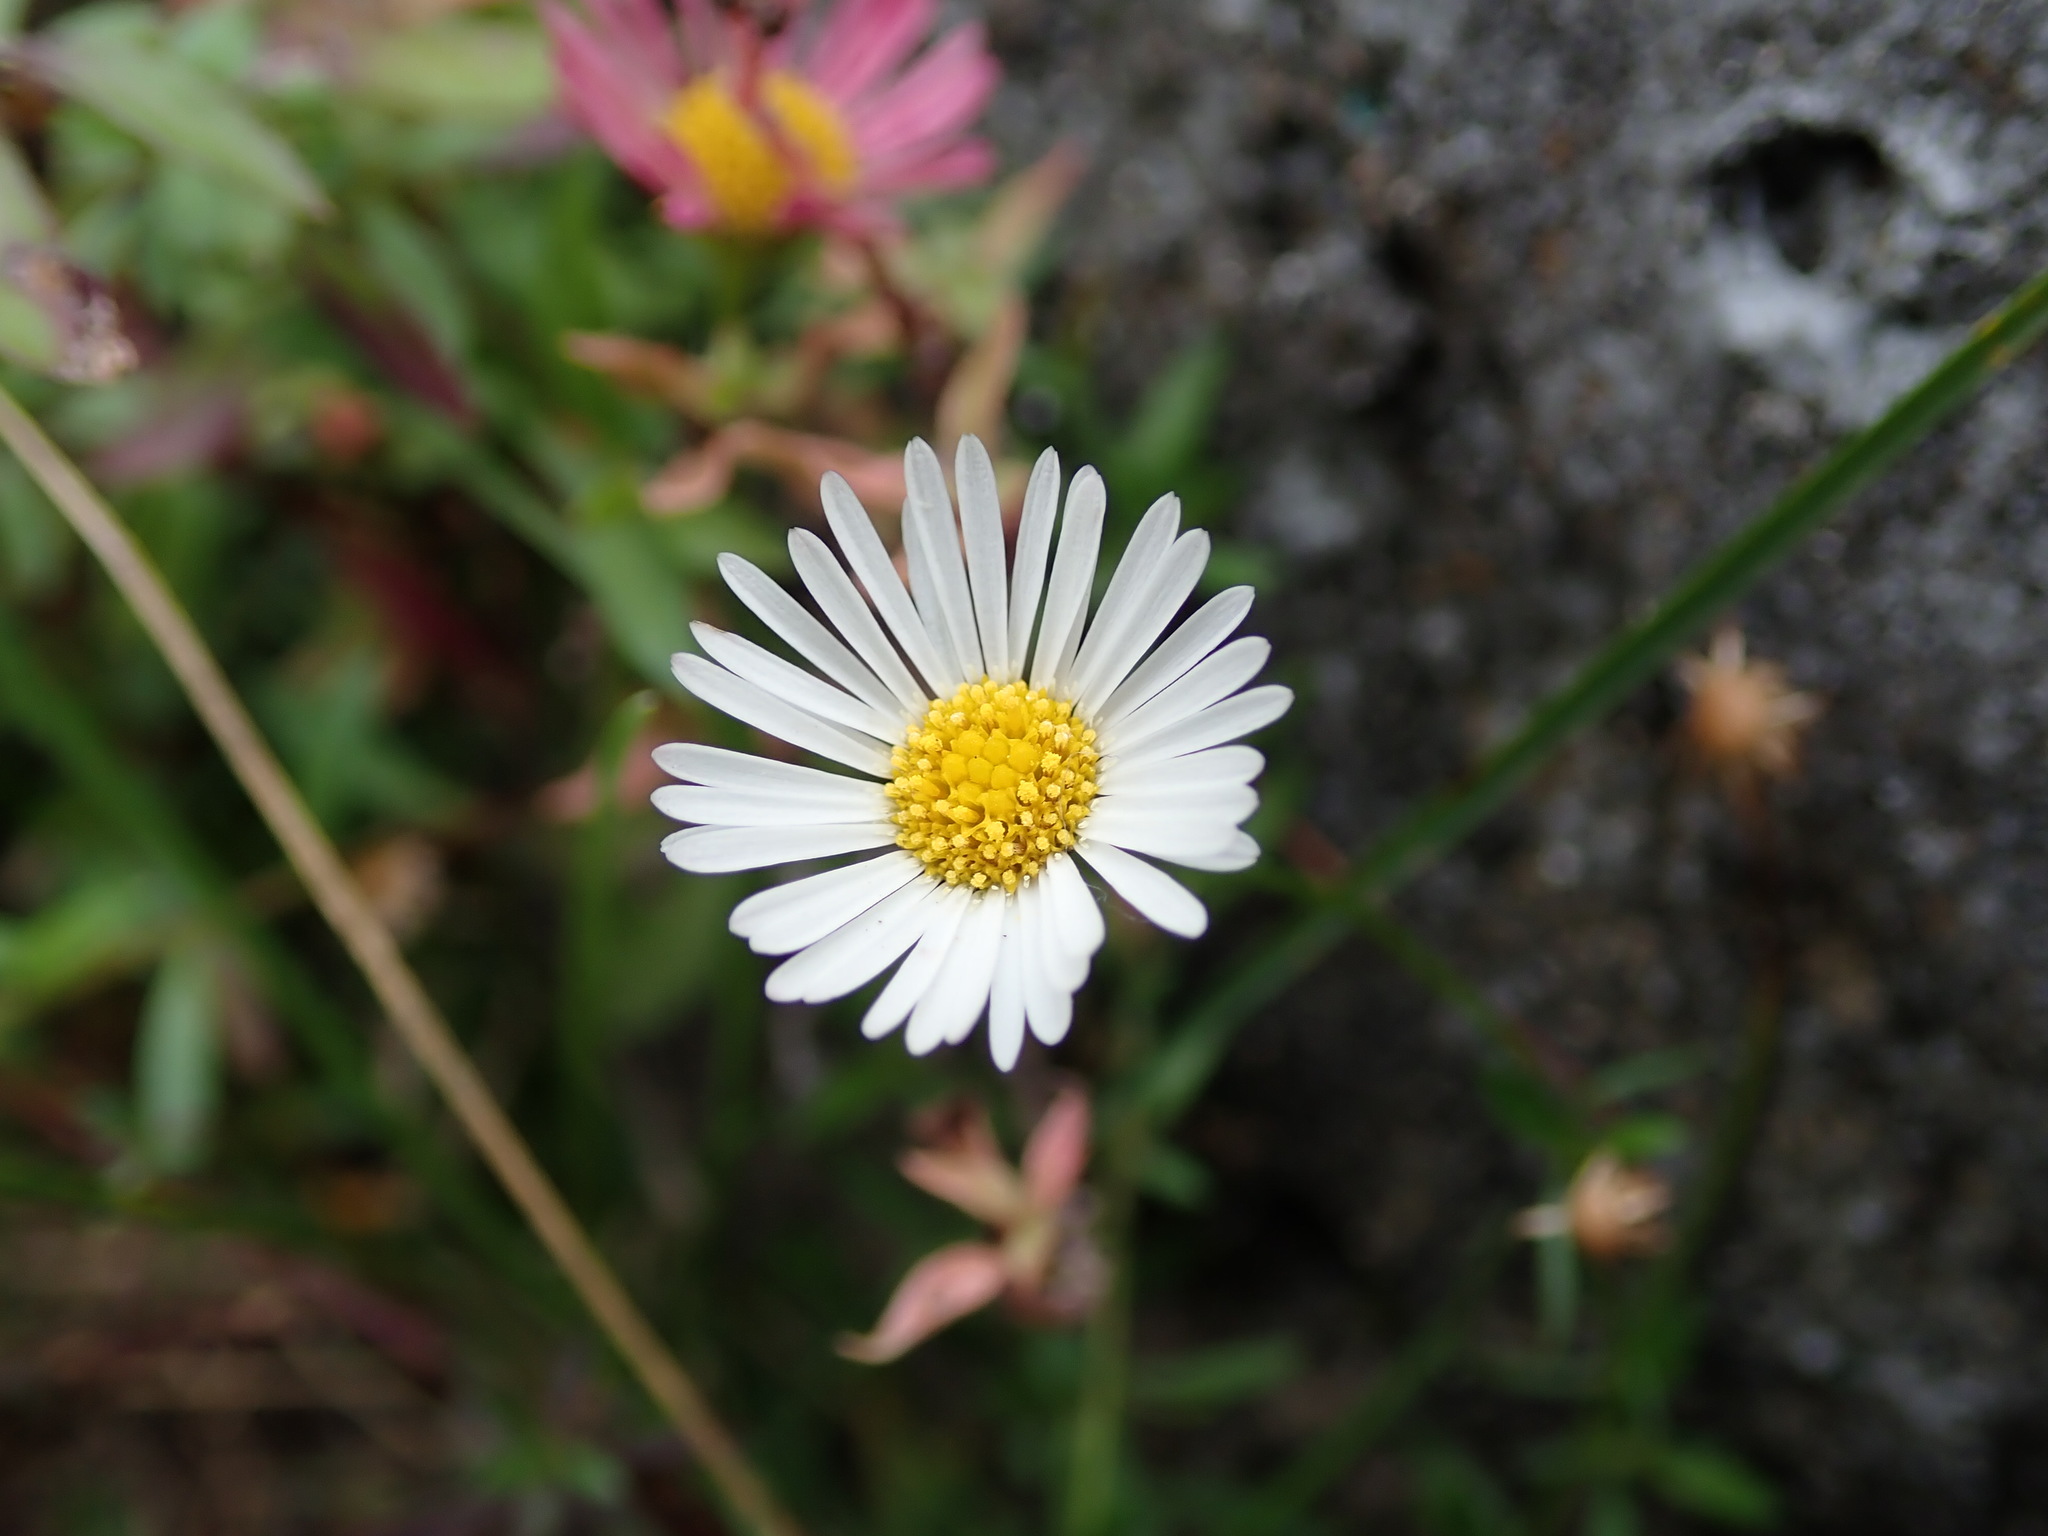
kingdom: Plantae
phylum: Tracheophyta
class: Magnoliopsida
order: Asterales
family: Asteraceae
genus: Erigeron
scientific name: Erigeron karvinskianus
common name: Mexican fleabane
